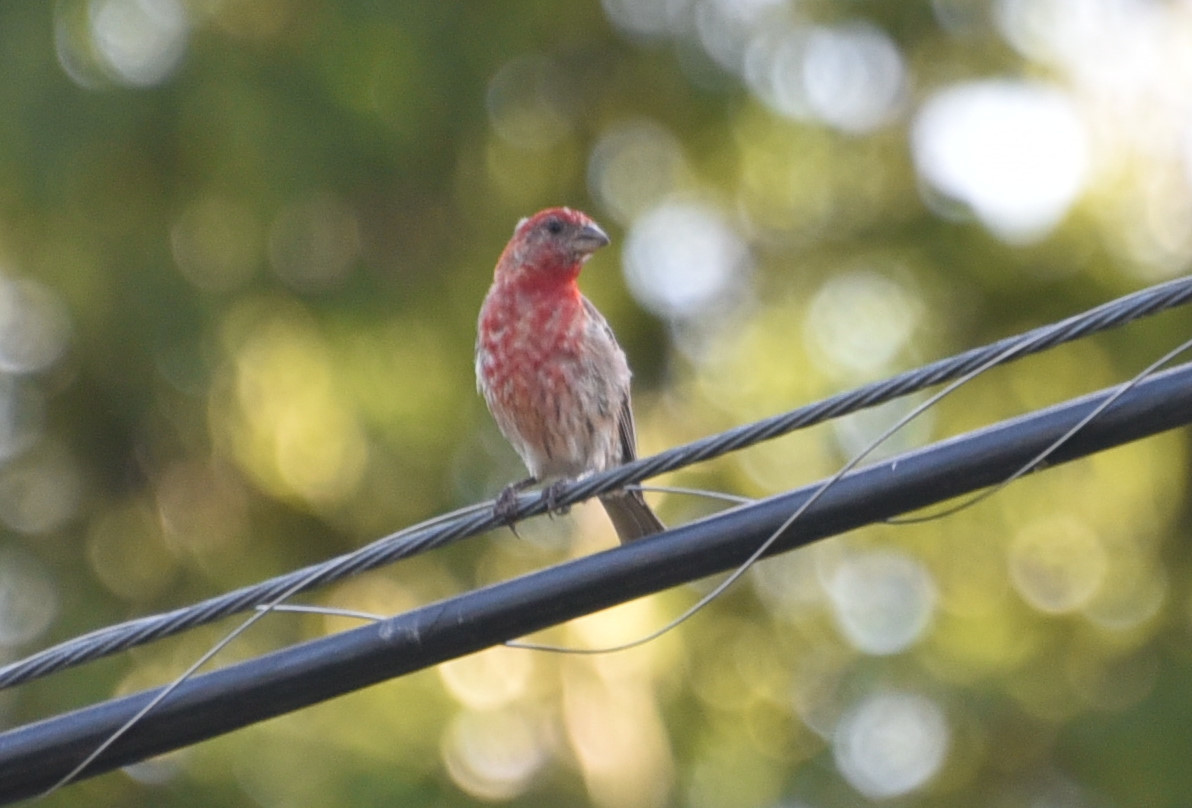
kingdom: Animalia
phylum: Chordata
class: Aves
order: Passeriformes
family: Fringillidae
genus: Haemorhous
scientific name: Haemorhous mexicanus
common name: House finch
